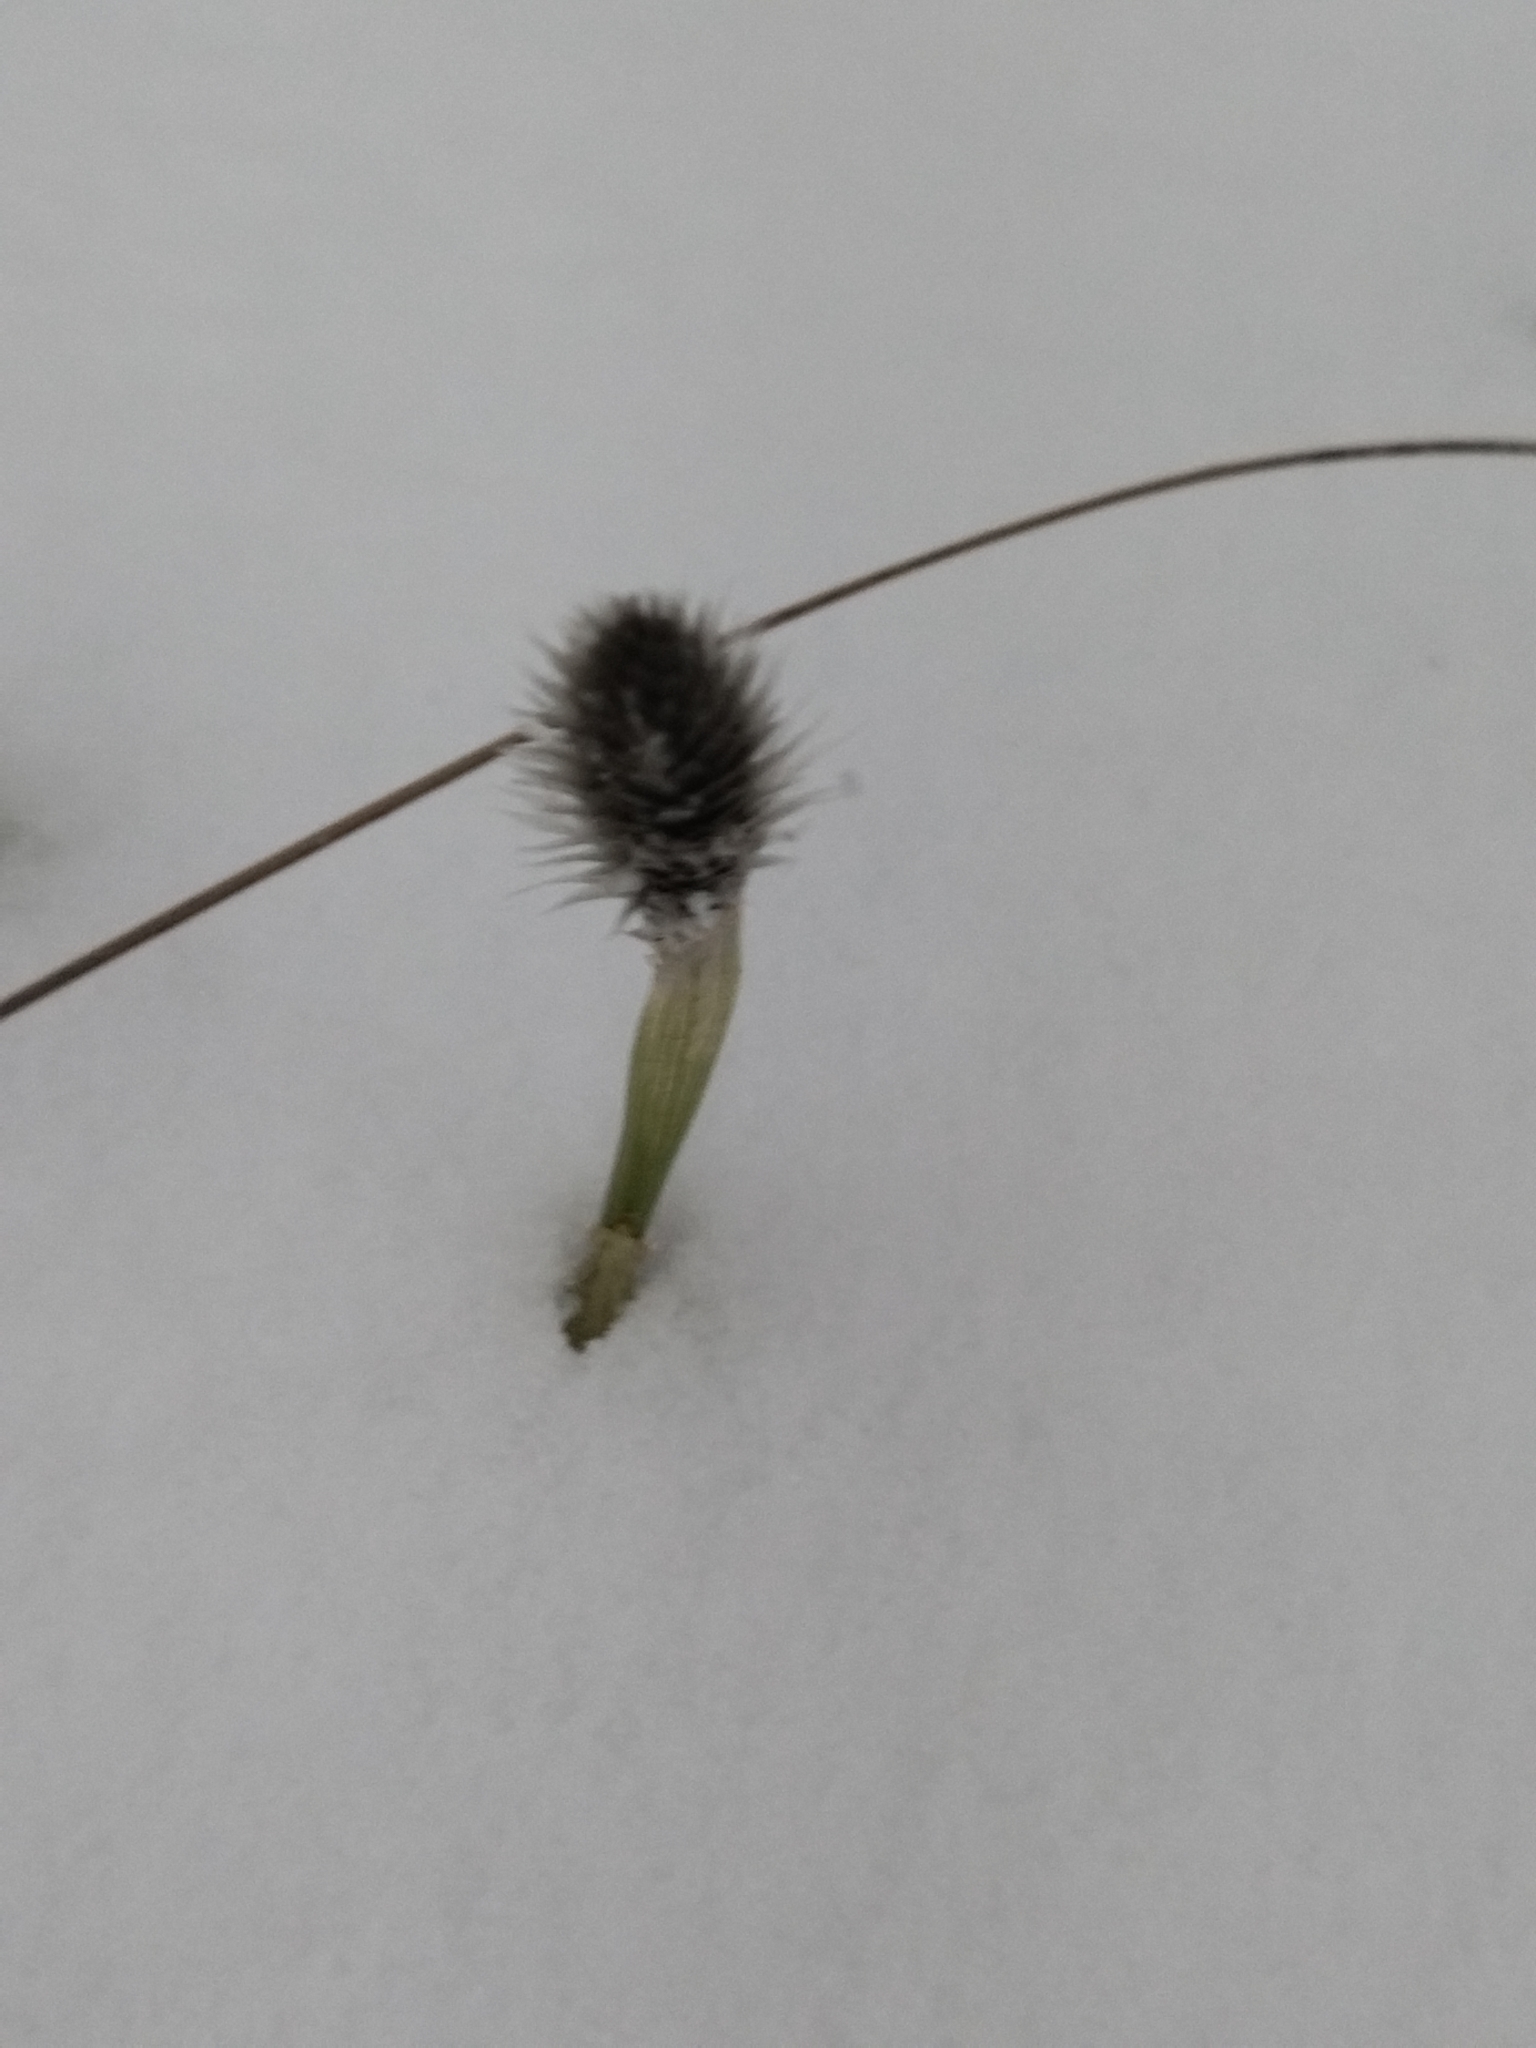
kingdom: Plantae
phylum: Tracheophyta
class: Liliopsida
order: Poales
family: Cyperaceae
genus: Eriophorum
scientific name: Eriophorum vaginatum
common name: Hare's-tail cottongrass
